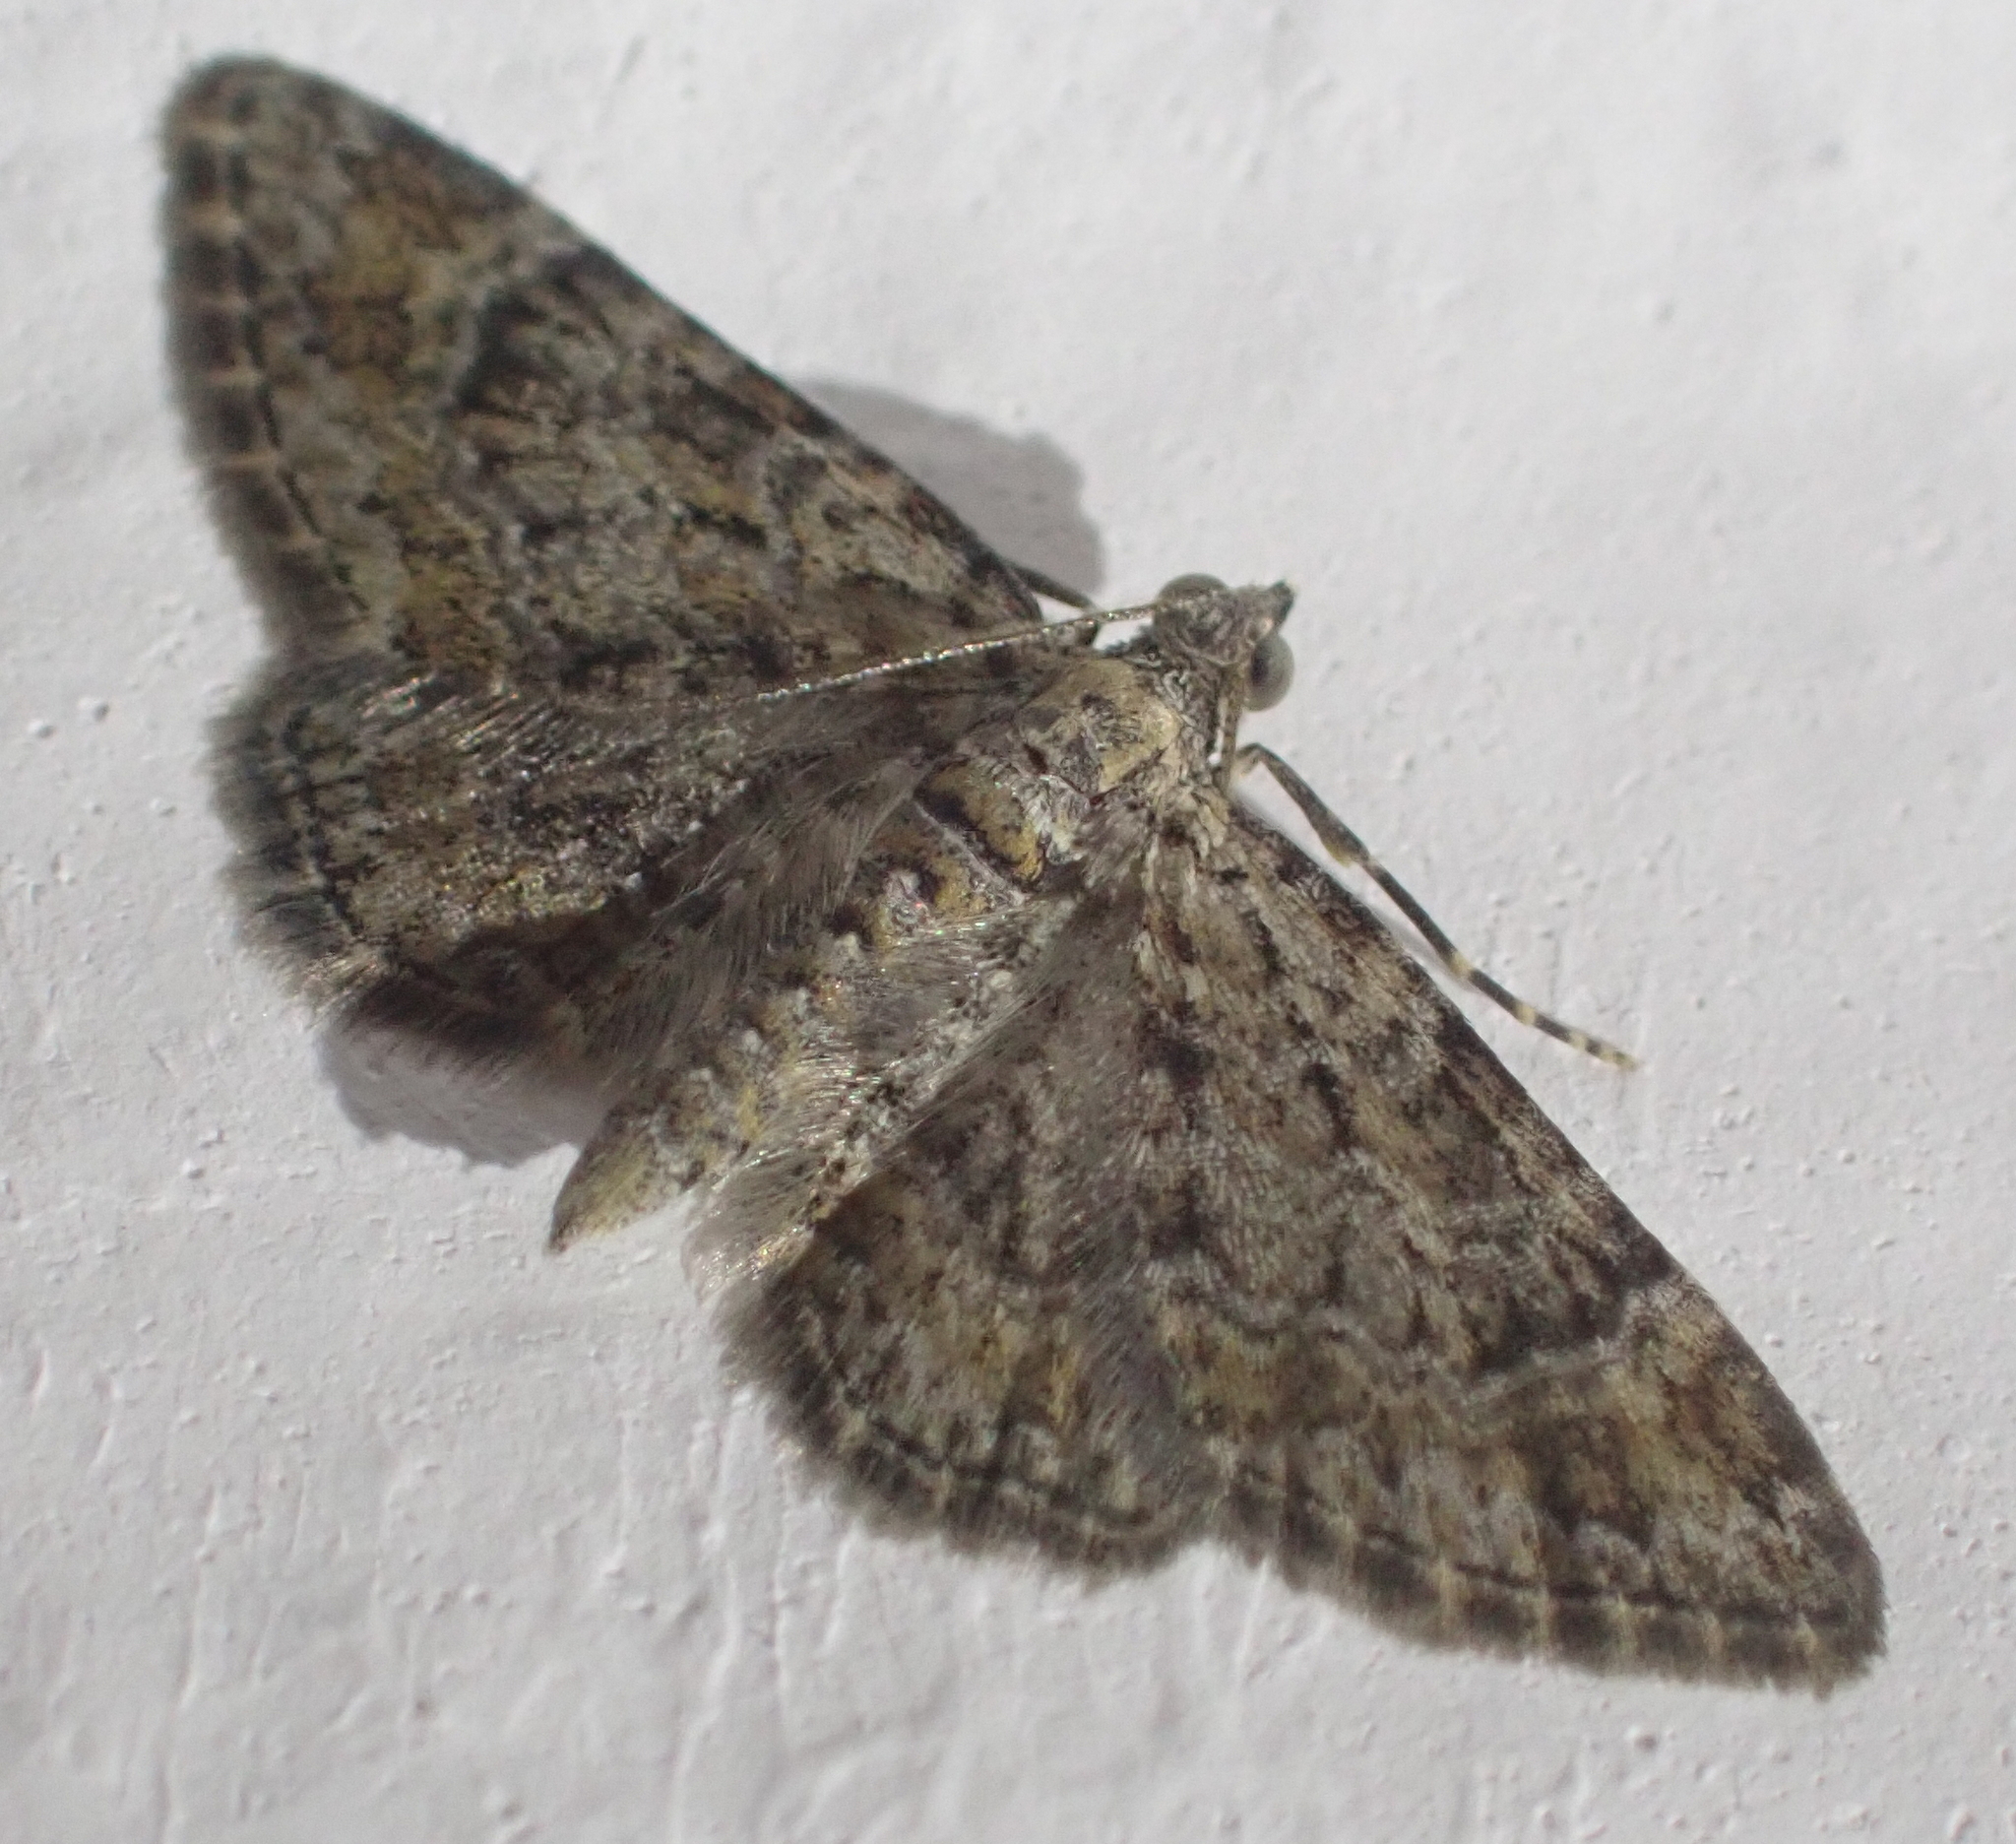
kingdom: Animalia
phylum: Arthropoda
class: Insecta
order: Lepidoptera
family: Geometridae
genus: Gymnoscelis
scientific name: Gymnoscelis rufifasciata
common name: Double-striped pug
